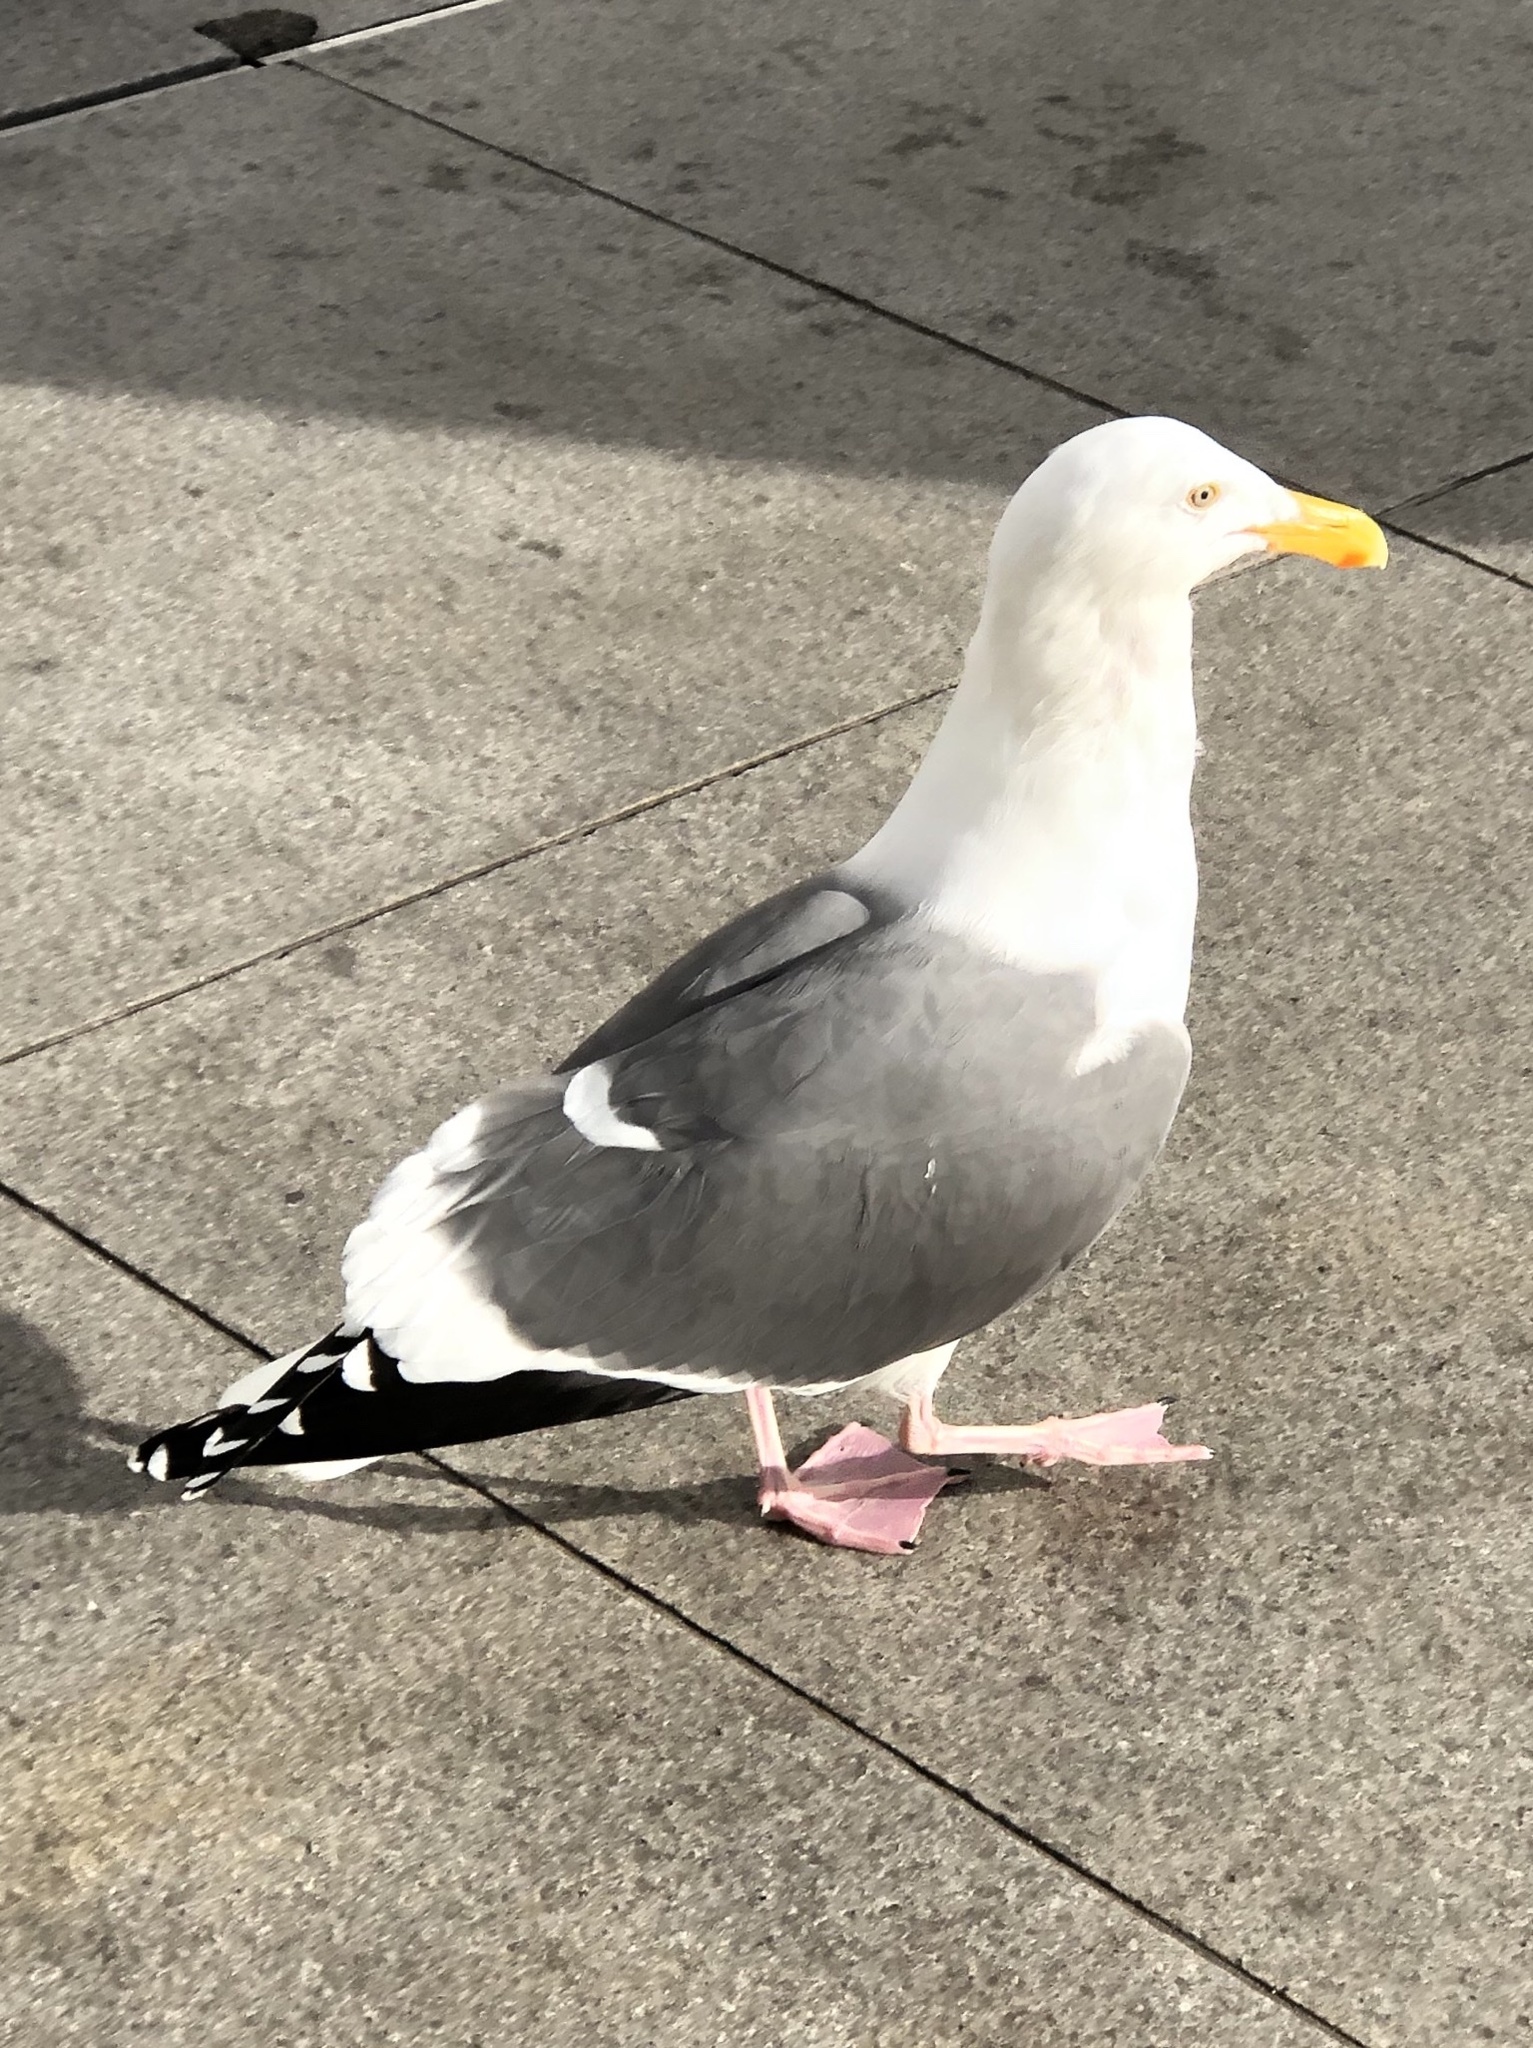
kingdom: Animalia
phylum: Chordata
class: Aves
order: Charadriiformes
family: Laridae
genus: Larus
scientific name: Larus occidentalis
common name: Western gull
